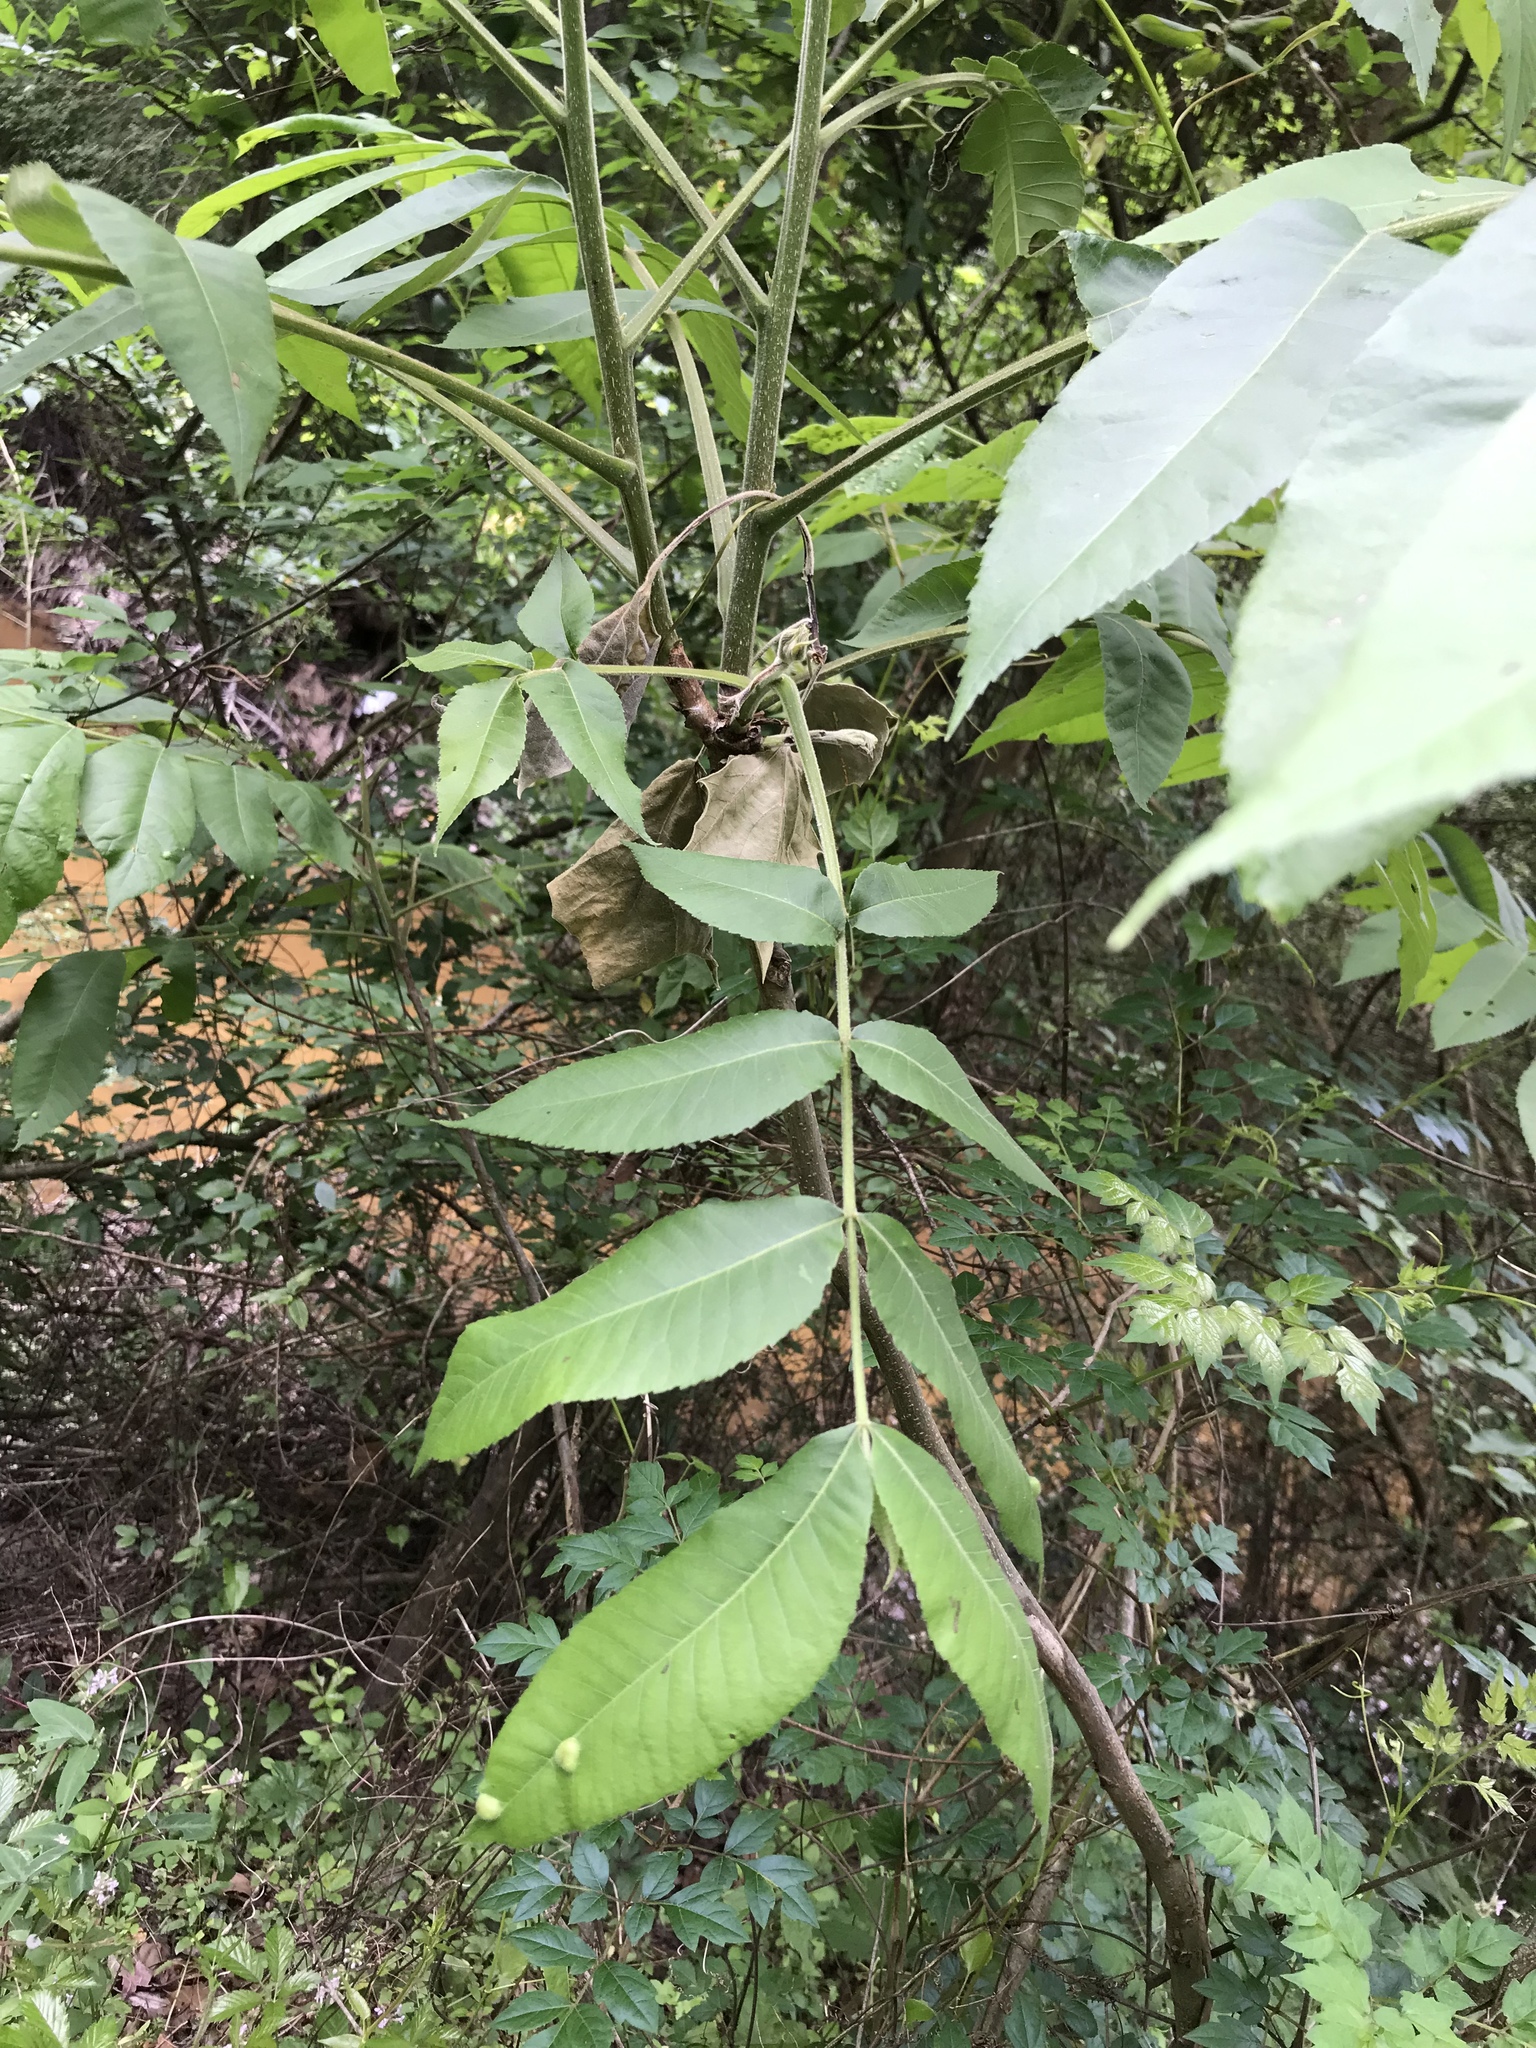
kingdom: Plantae
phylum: Tracheophyta
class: Magnoliopsida
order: Fagales
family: Juglandaceae
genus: Juglans
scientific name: Juglans nigra
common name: Black walnut
